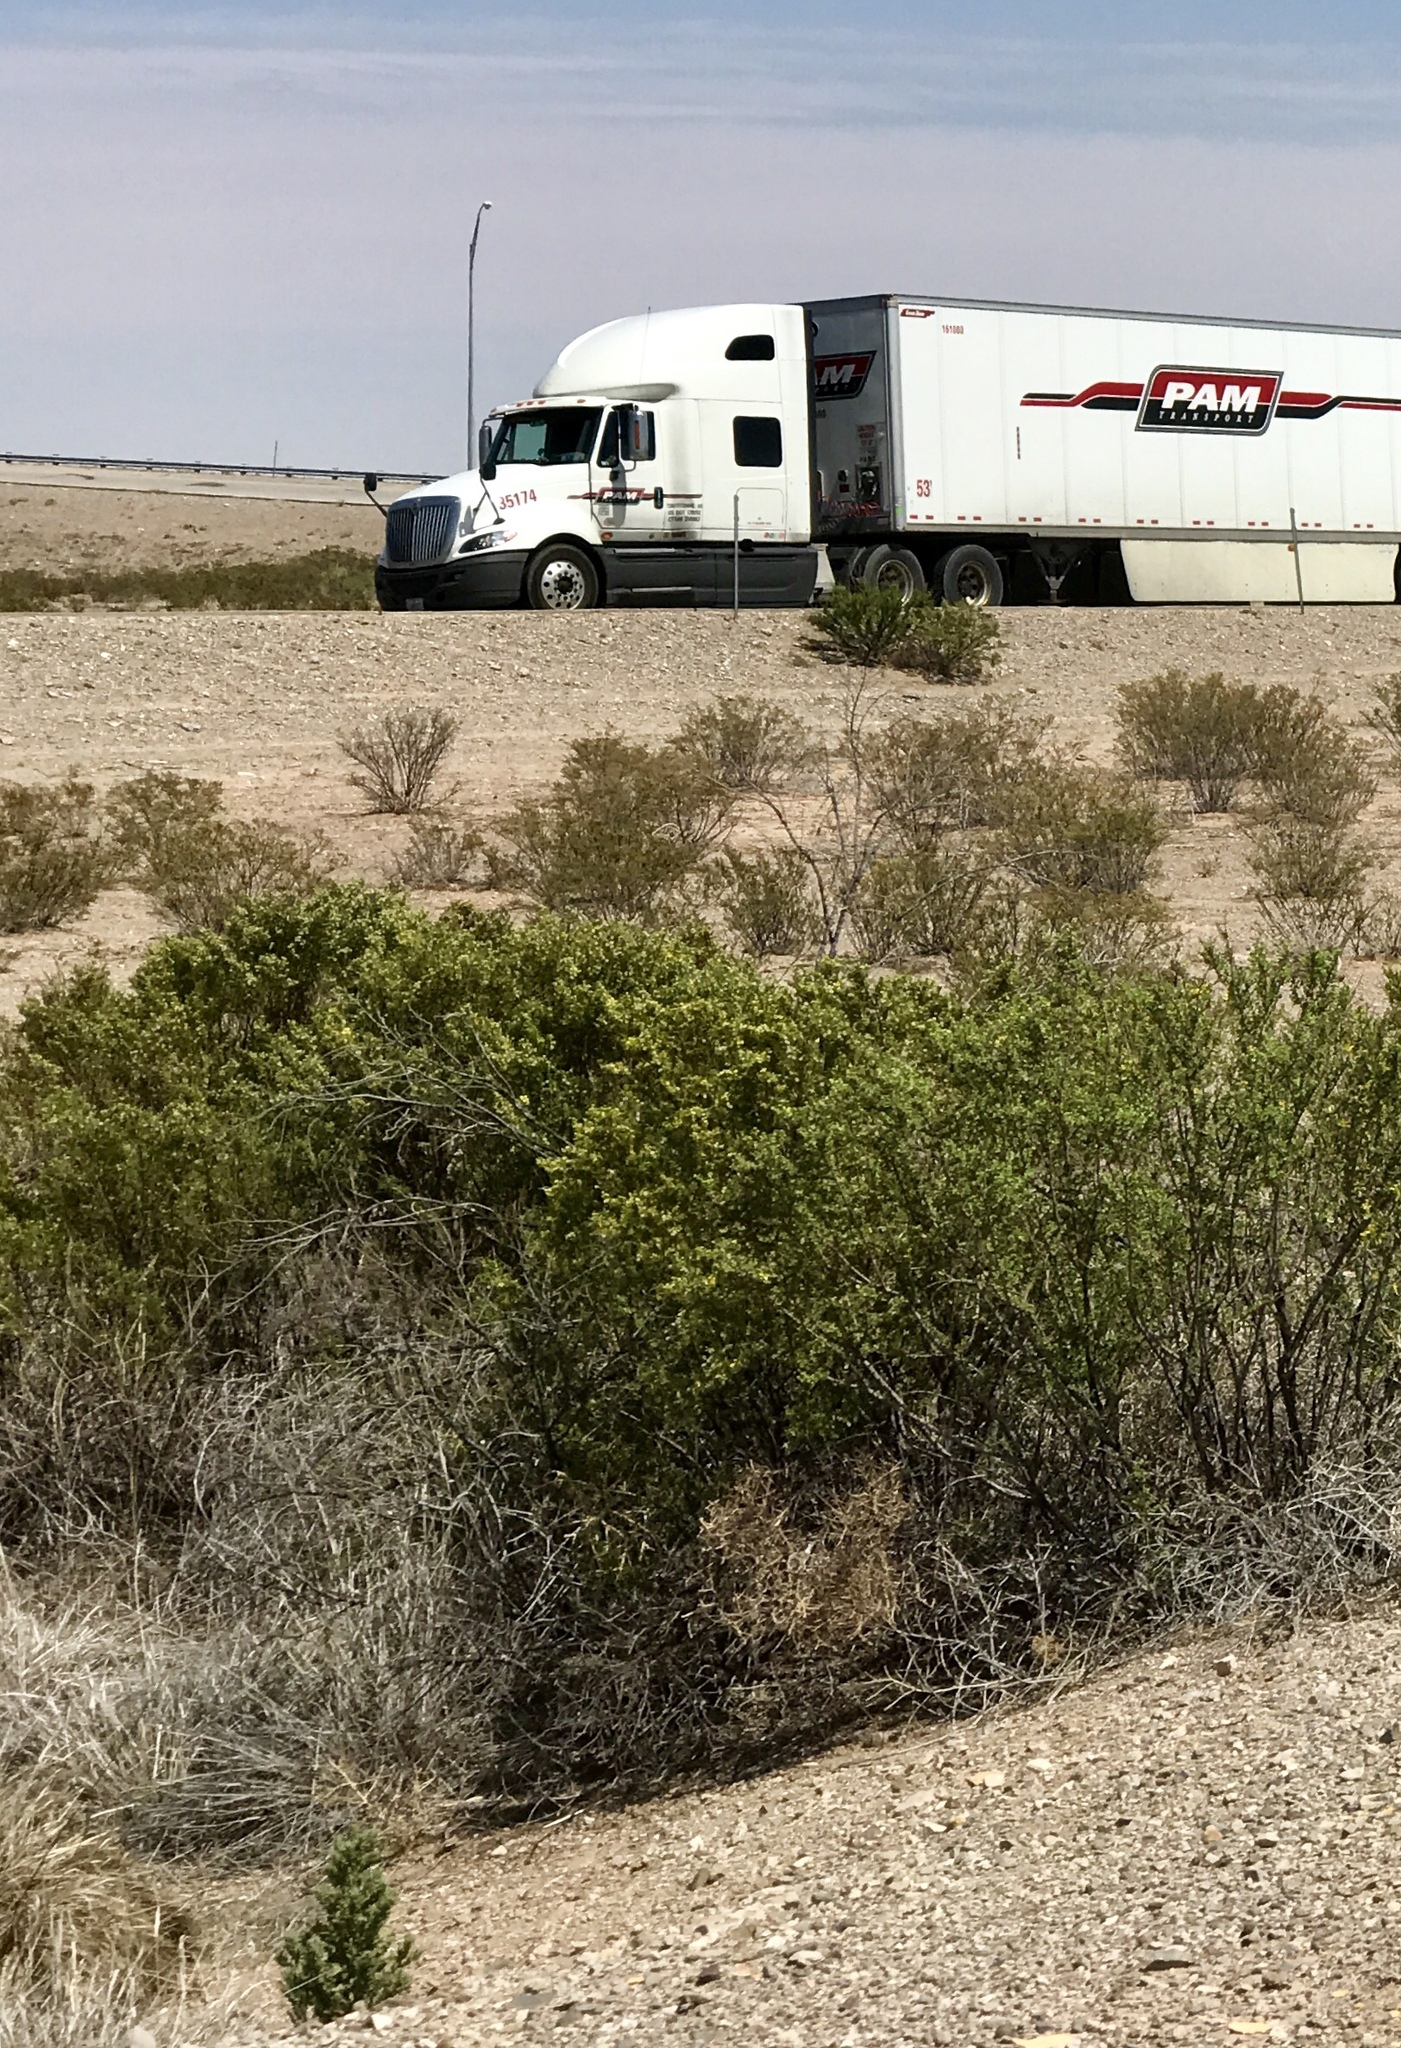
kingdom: Plantae
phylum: Tracheophyta
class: Magnoliopsida
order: Zygophyllales
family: Zygophyllaceae
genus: Larrea
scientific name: Larrea tridentata
